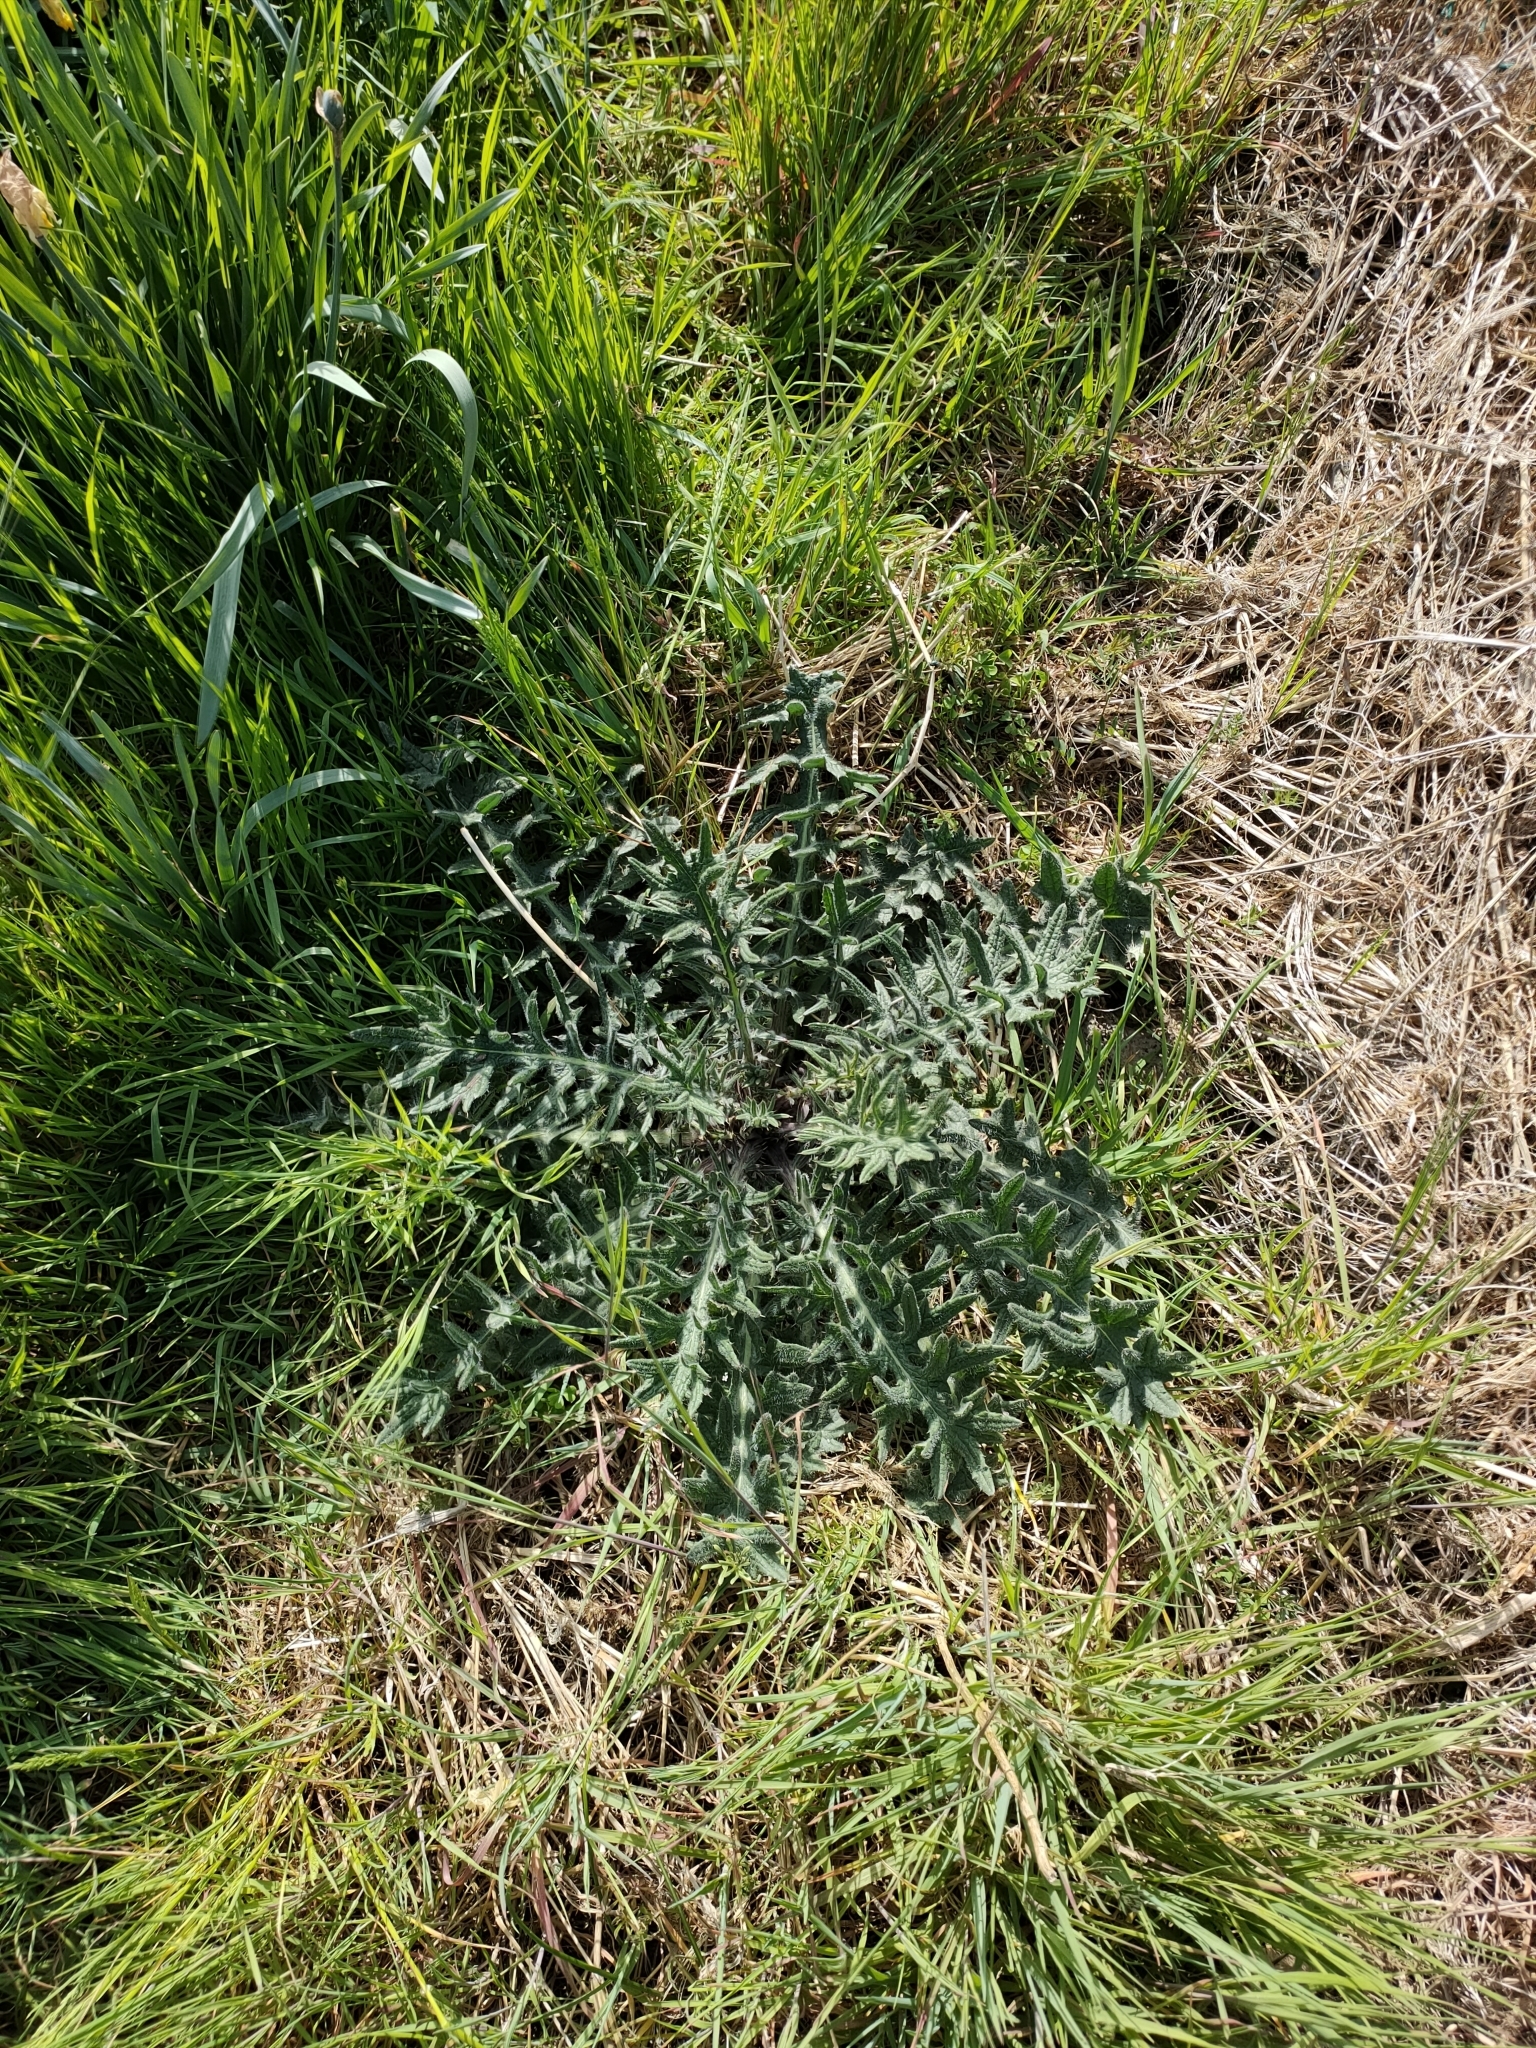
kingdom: Plantae
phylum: Tracheophyta
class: Magnoliopsida
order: Asterales
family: Asteraceae
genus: Cirsium
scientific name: Cirsium vulgare
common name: Bull thistle
